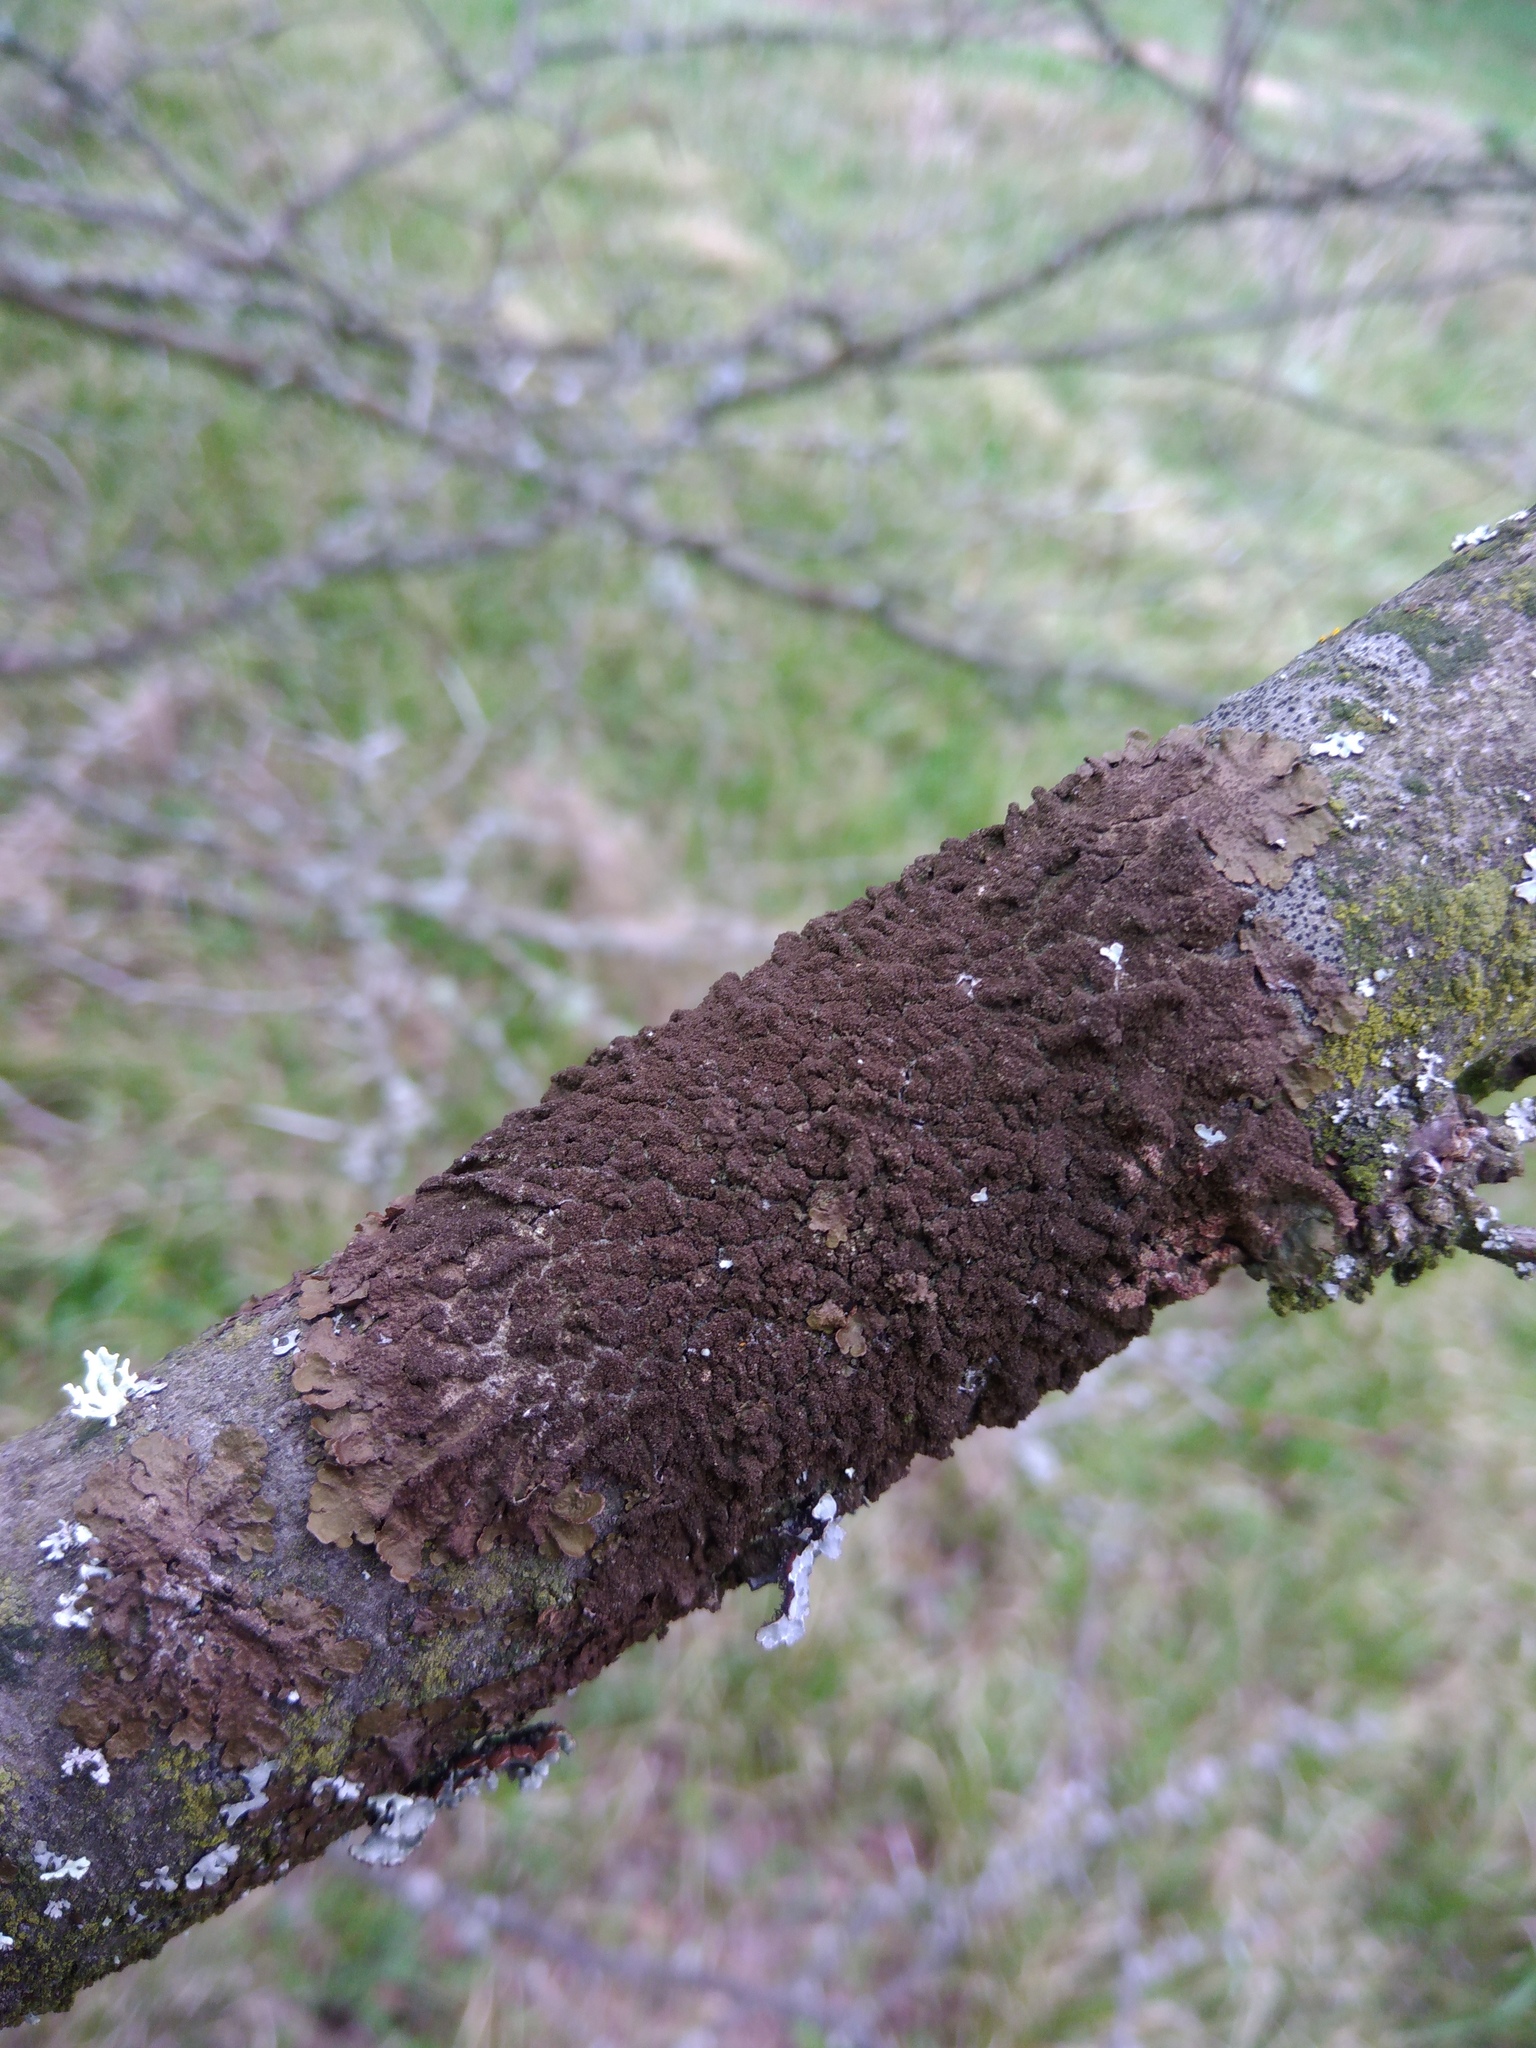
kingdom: Fungi
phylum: Ascomycota
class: Lecanoromycetes
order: Lecanorales
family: Parmeliaceae
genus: Melanelixia
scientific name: Melanelixia subaurifera
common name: Abraded camouflage lichen
